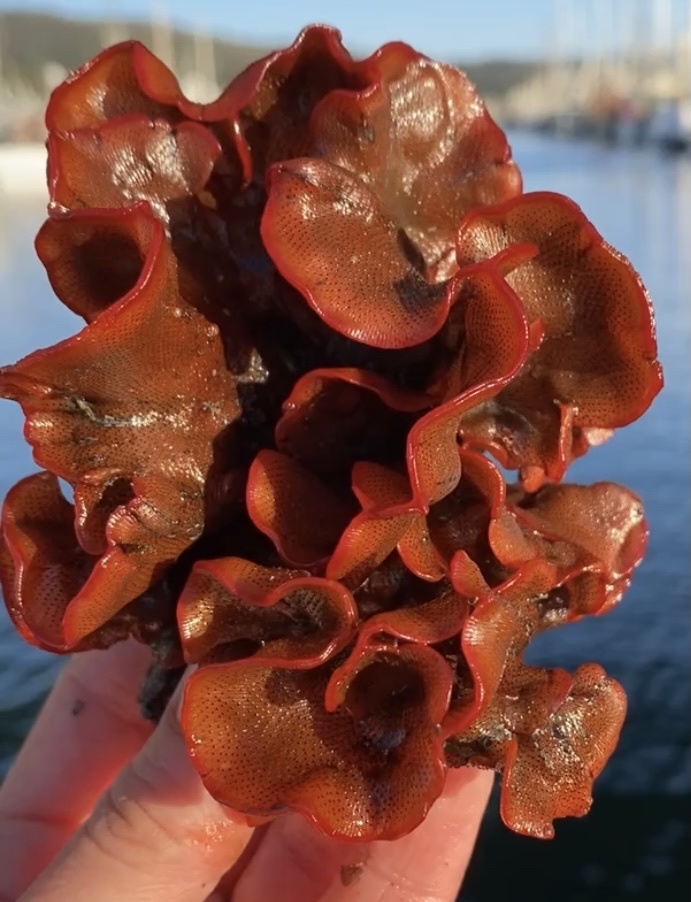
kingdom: Animalia
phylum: Bryozoa
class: Gymnolaemata
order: Cheilostomatida
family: Watersiporidae
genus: Watersipora
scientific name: Watersipora subtorquata
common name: Bryozoan
